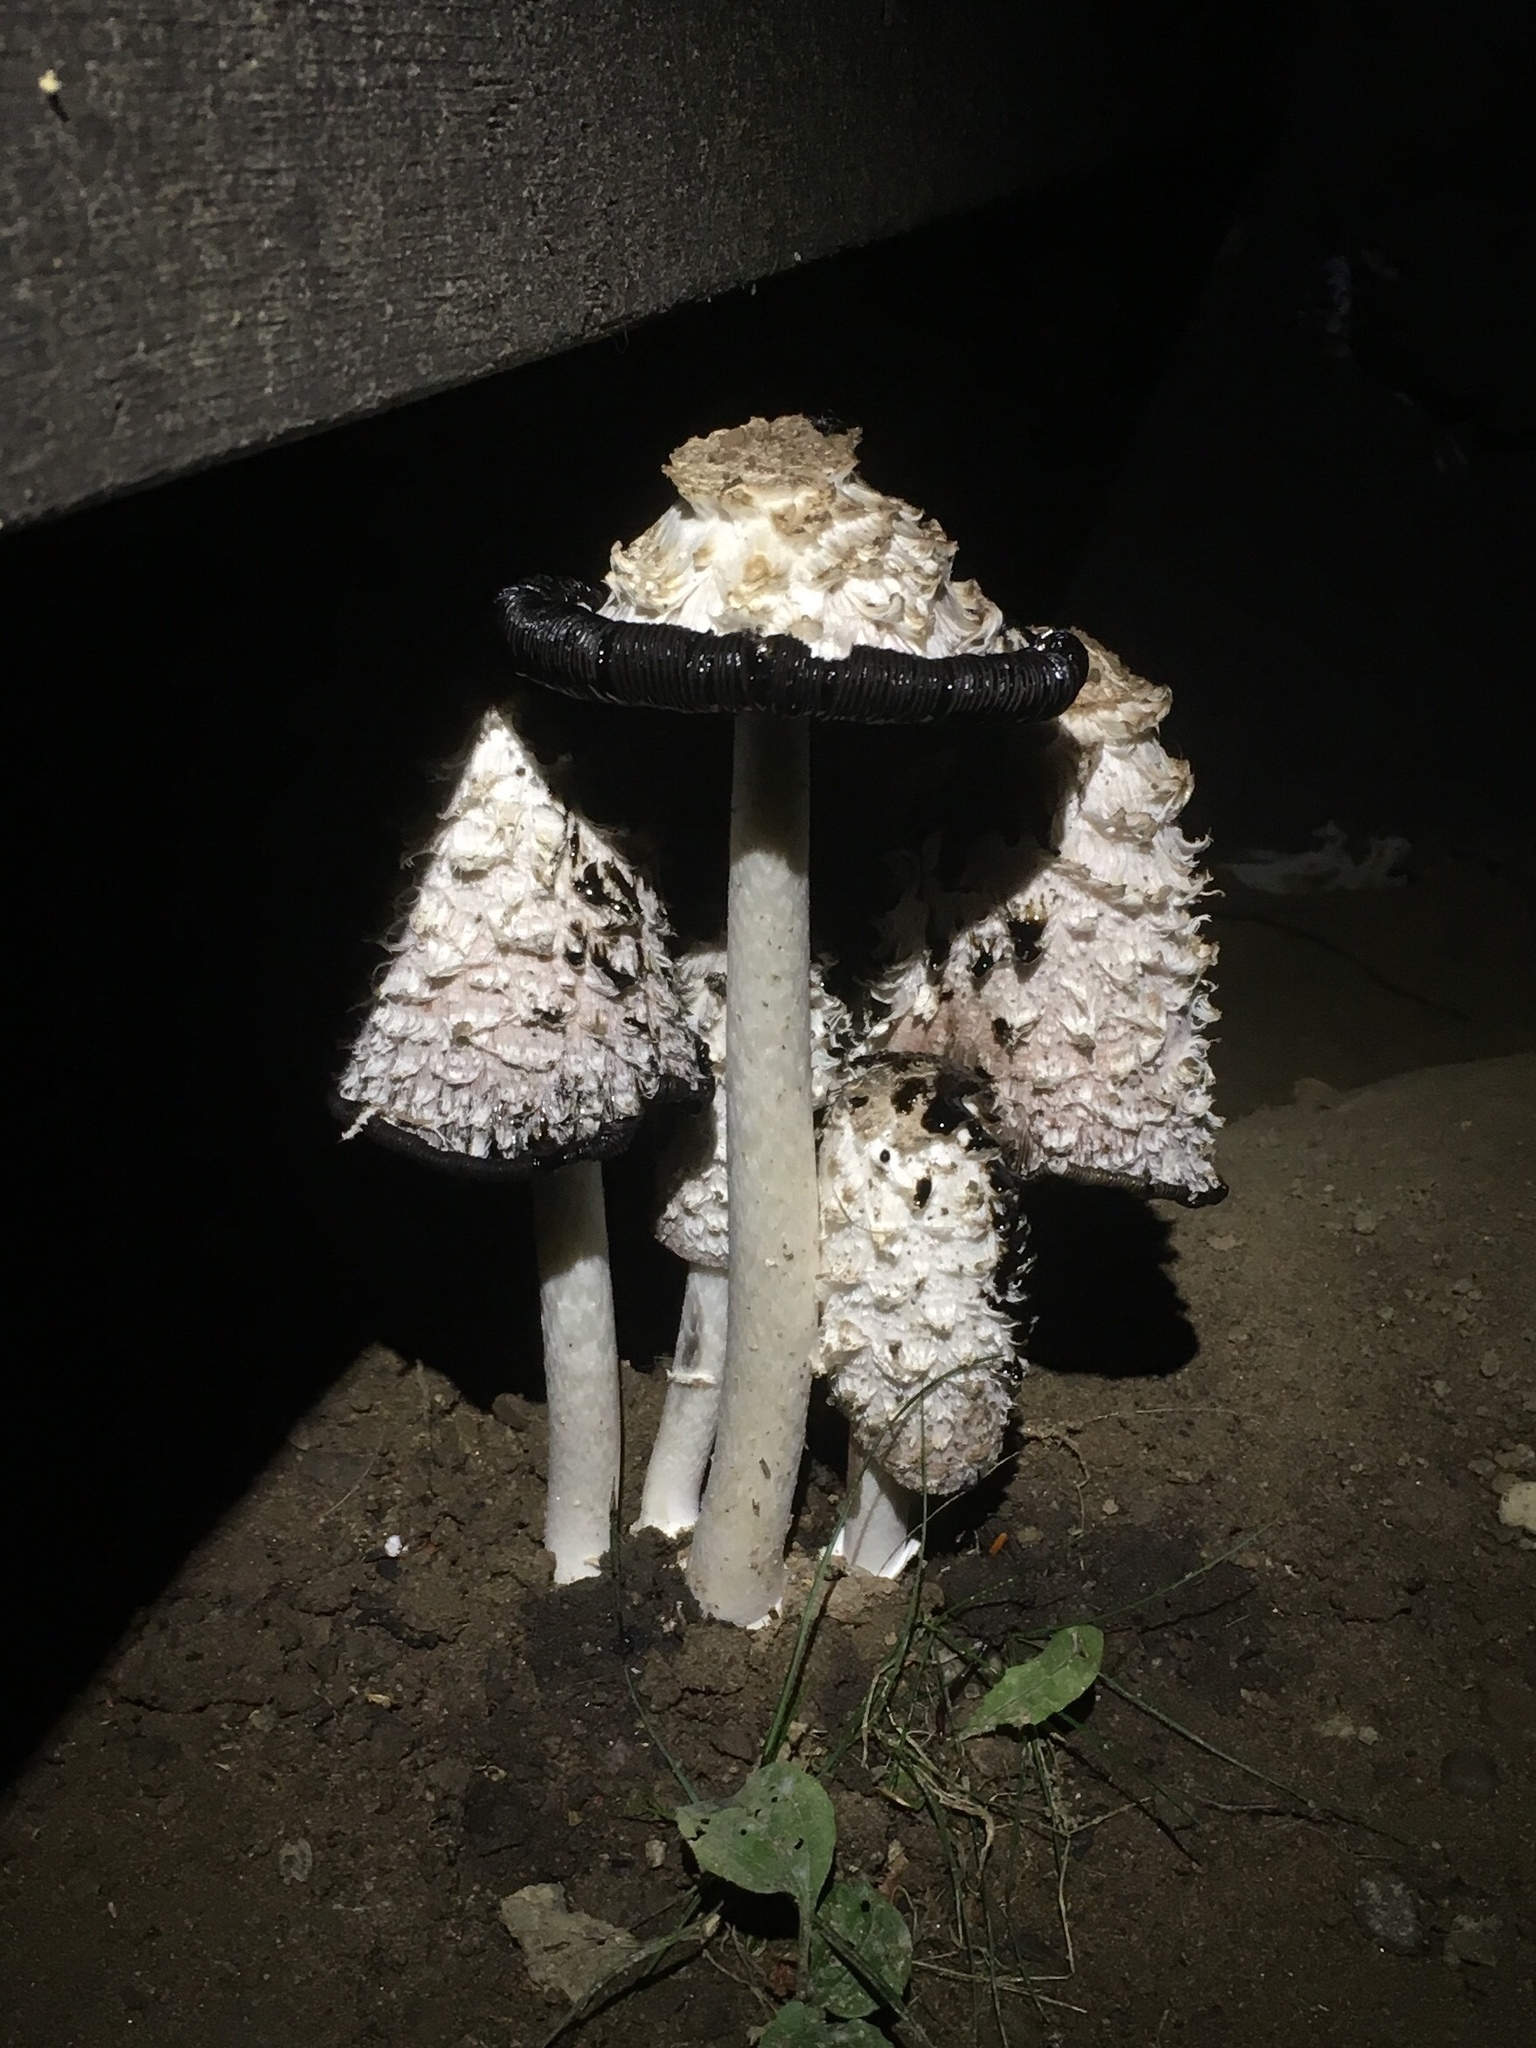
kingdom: Fungi
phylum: Basidiomycota
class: Agaricomycetes
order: Agaricales
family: Agaricaceae
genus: Coprinus
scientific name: Coprinus comatus
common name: Lawyer's wig
